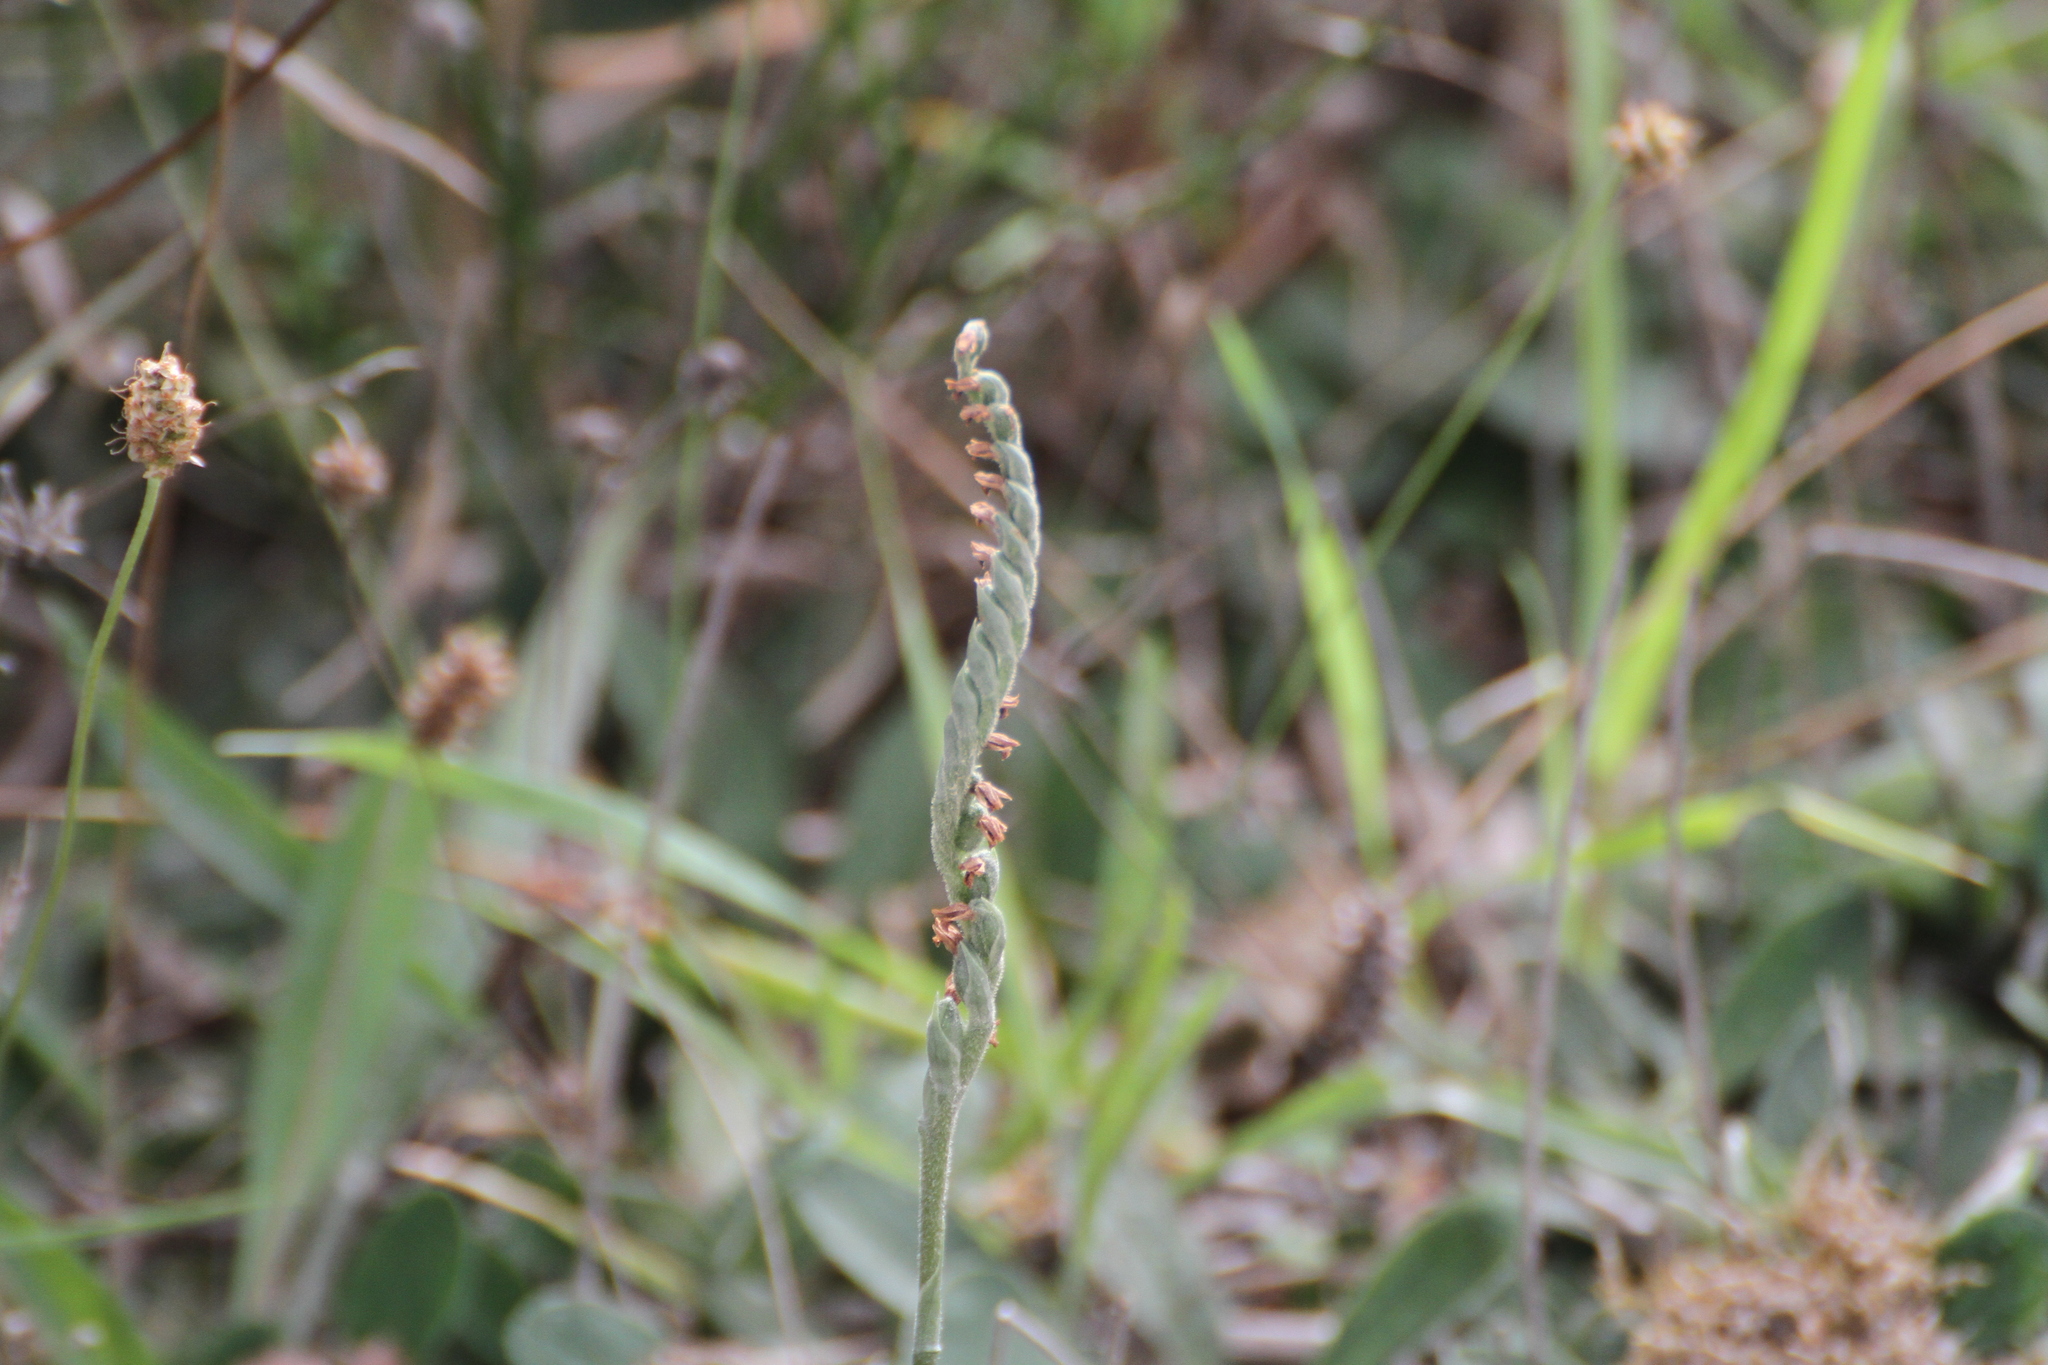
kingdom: Plantae
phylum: Tracheophyta
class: Liliopsida
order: Asparagales
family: Orchidaceae
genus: Spiranthes
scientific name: Spiranthes spiralis
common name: Autumn lady's-tresses
